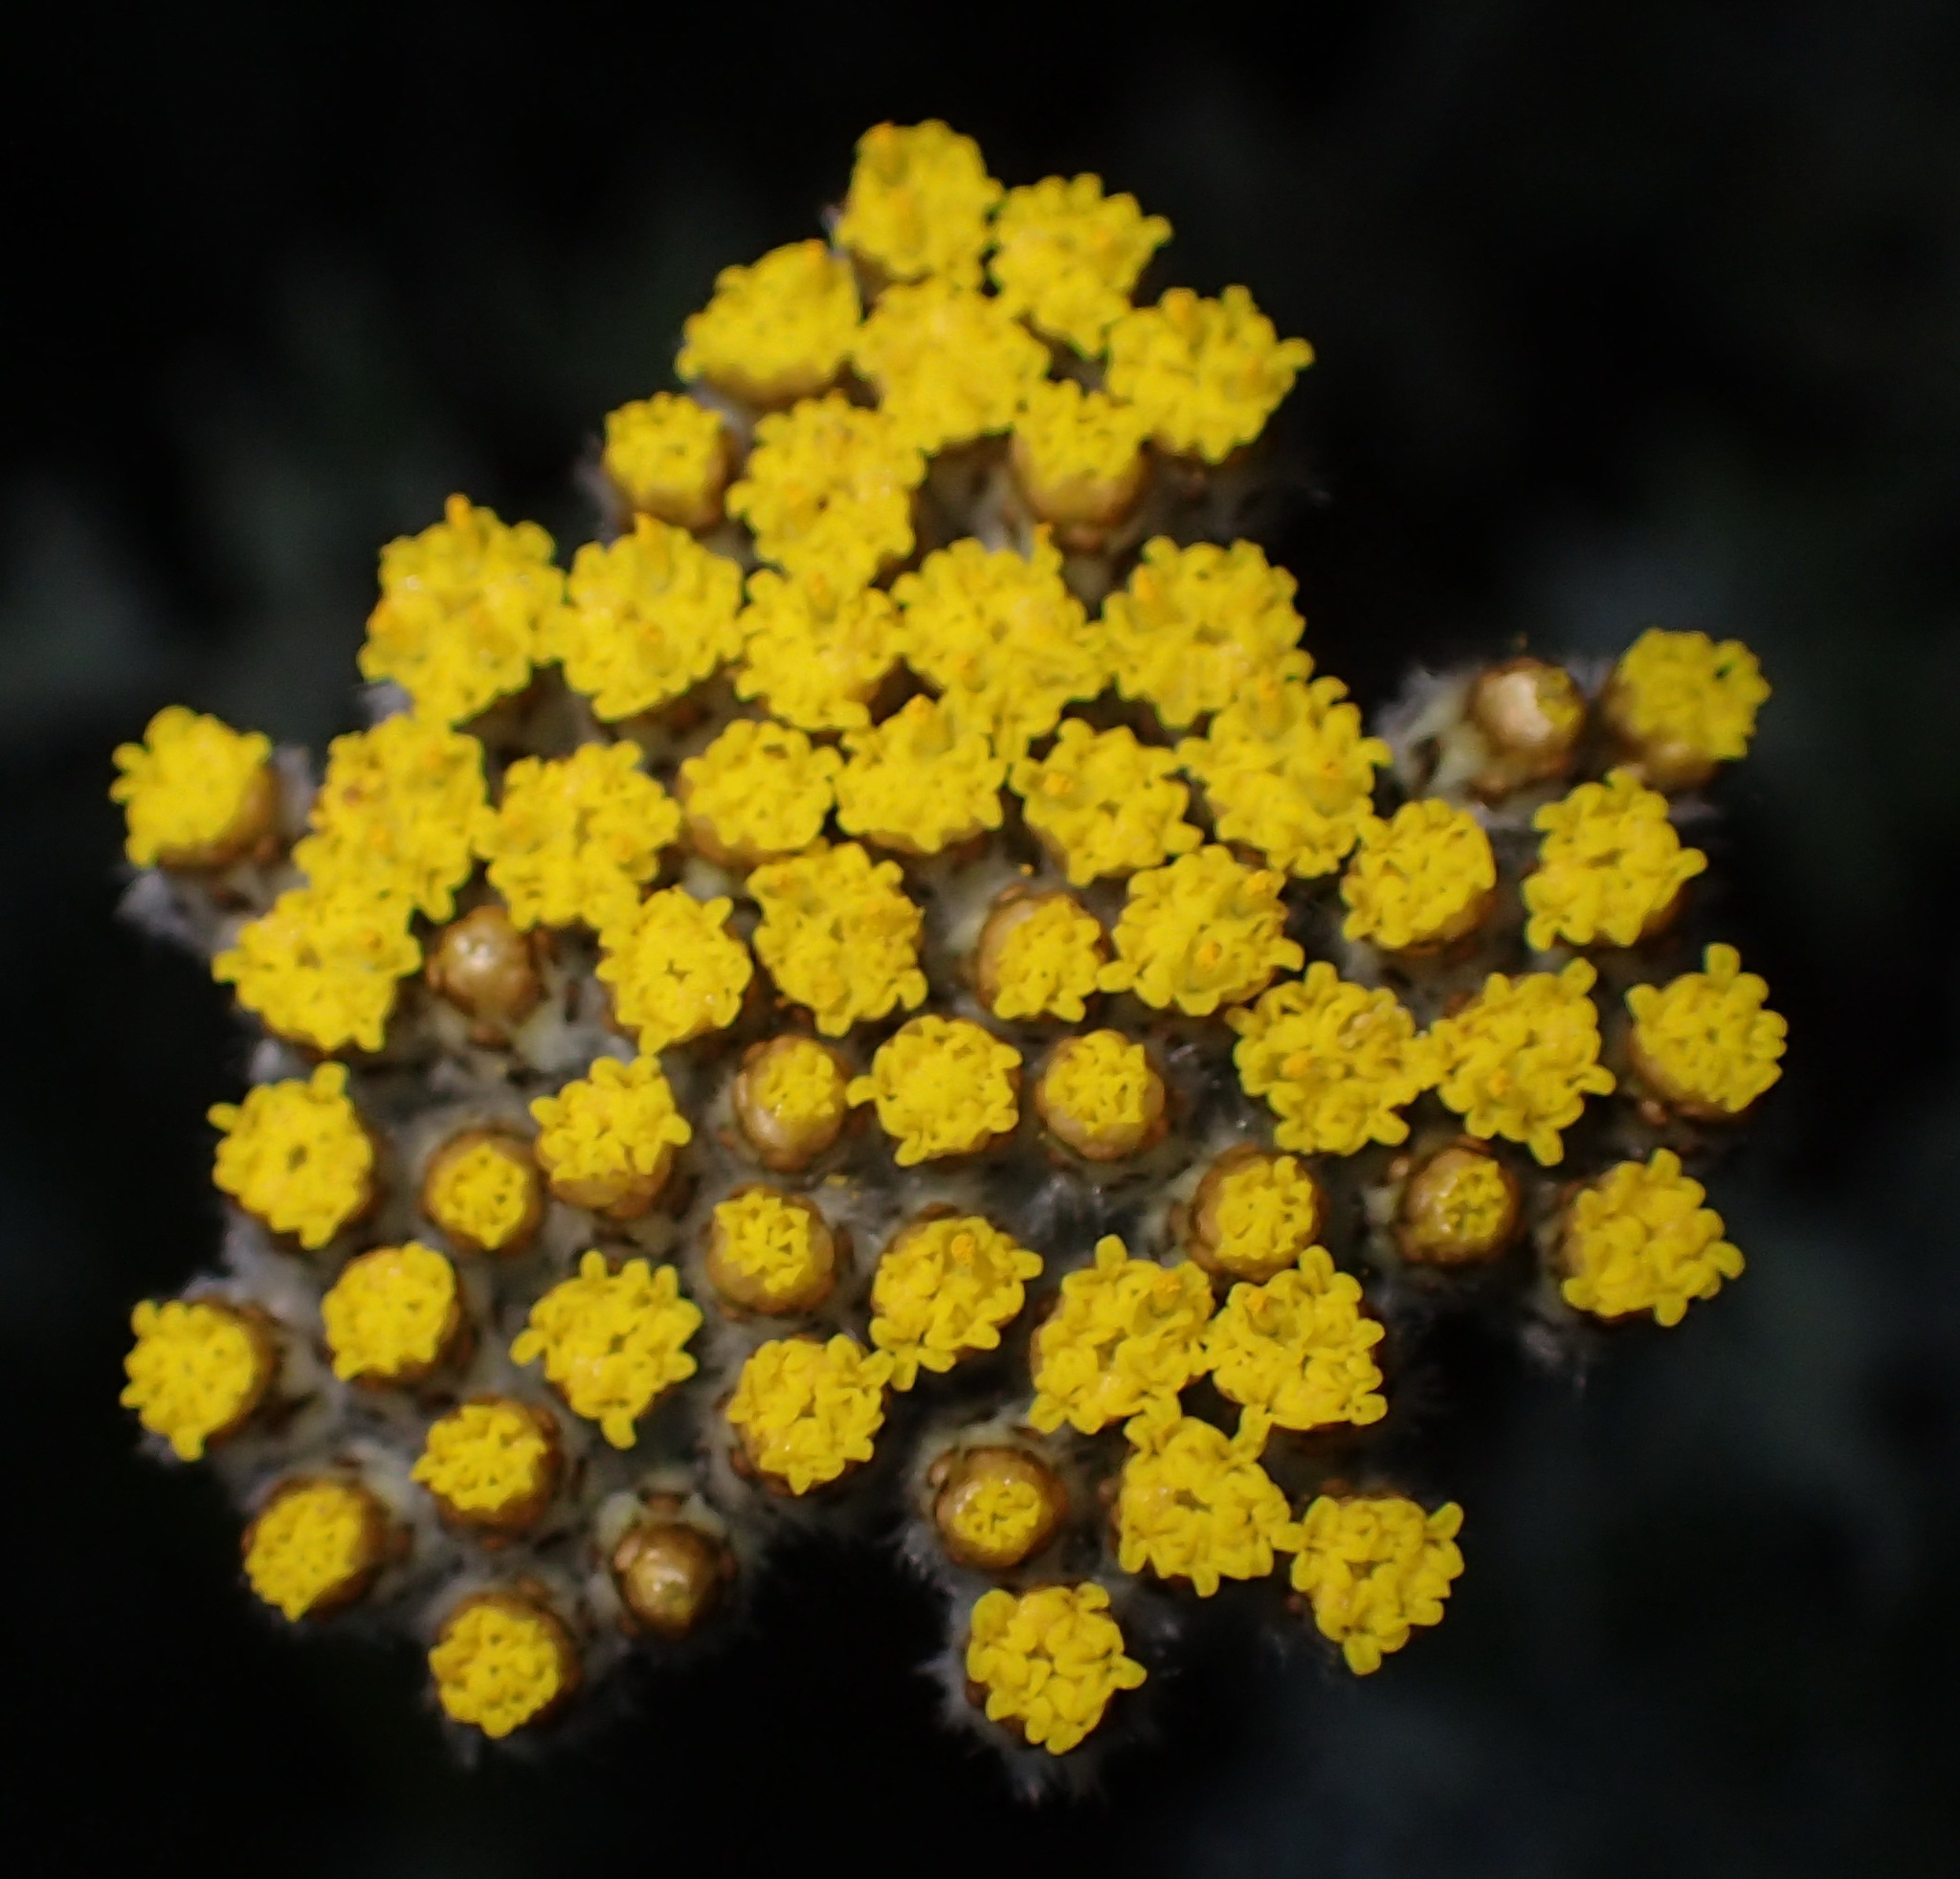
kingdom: Plantae
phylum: Tracheophyta
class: Magnoliopsida
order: Asterales
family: Asteraceae
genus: Helichrysum
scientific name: Helichrysum dasyanthum
